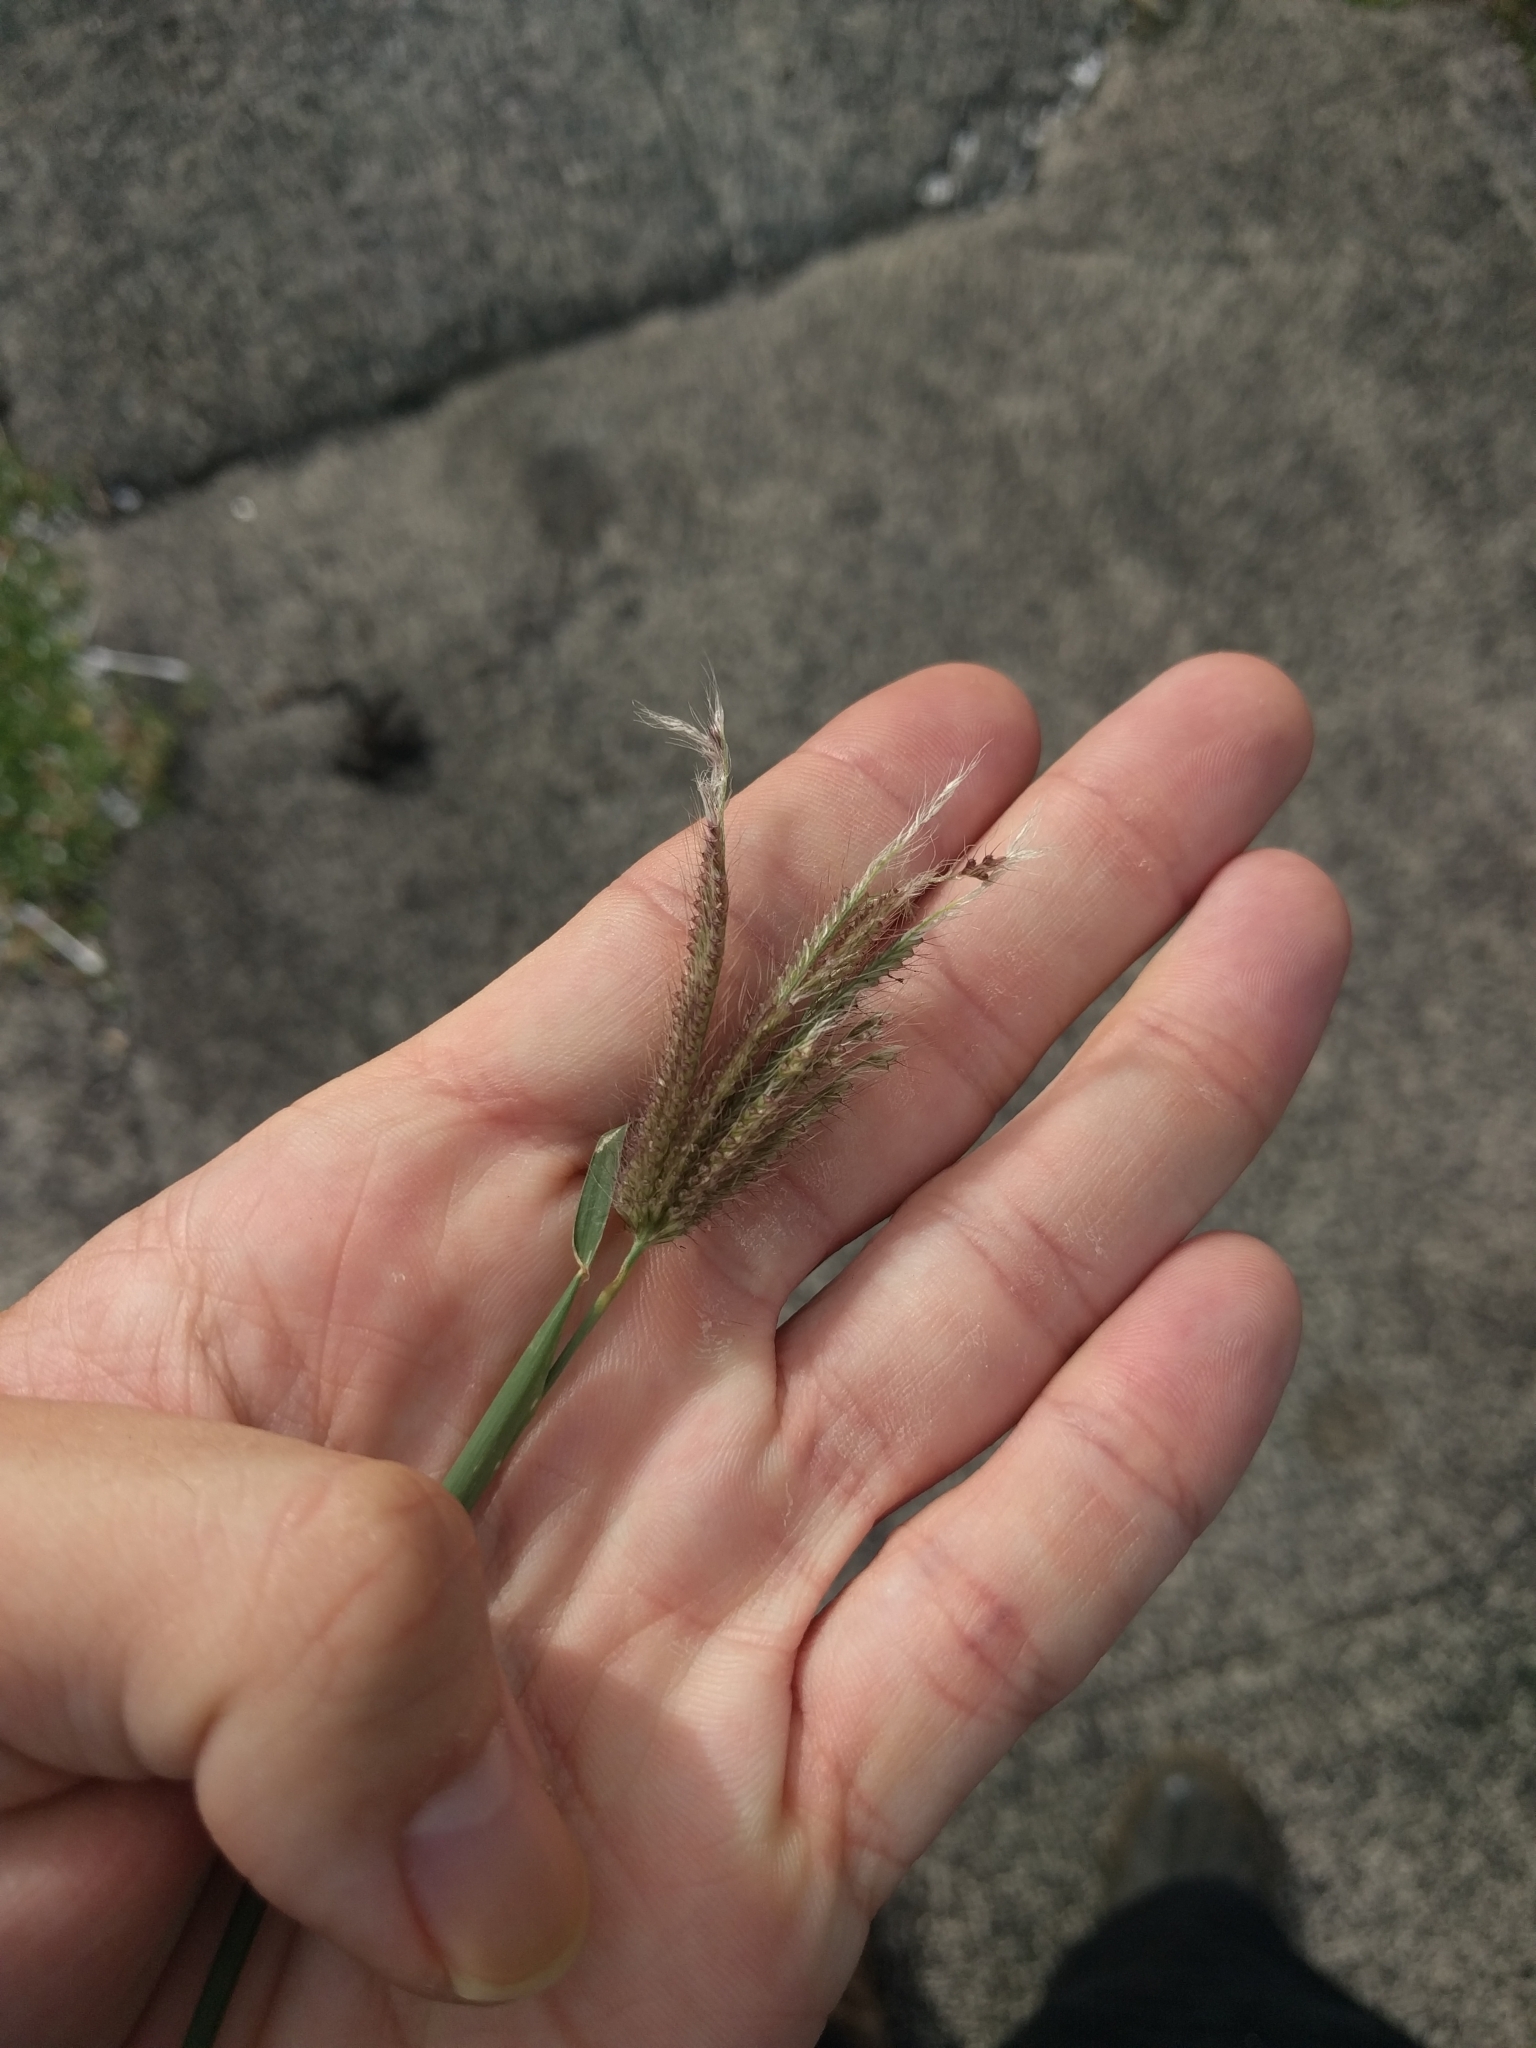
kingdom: Plantae
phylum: Tracheophyta
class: Liliopsida
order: Poales
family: Poaceae
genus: Chloris
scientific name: Chloris barbata
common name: Swollen fingergrass
